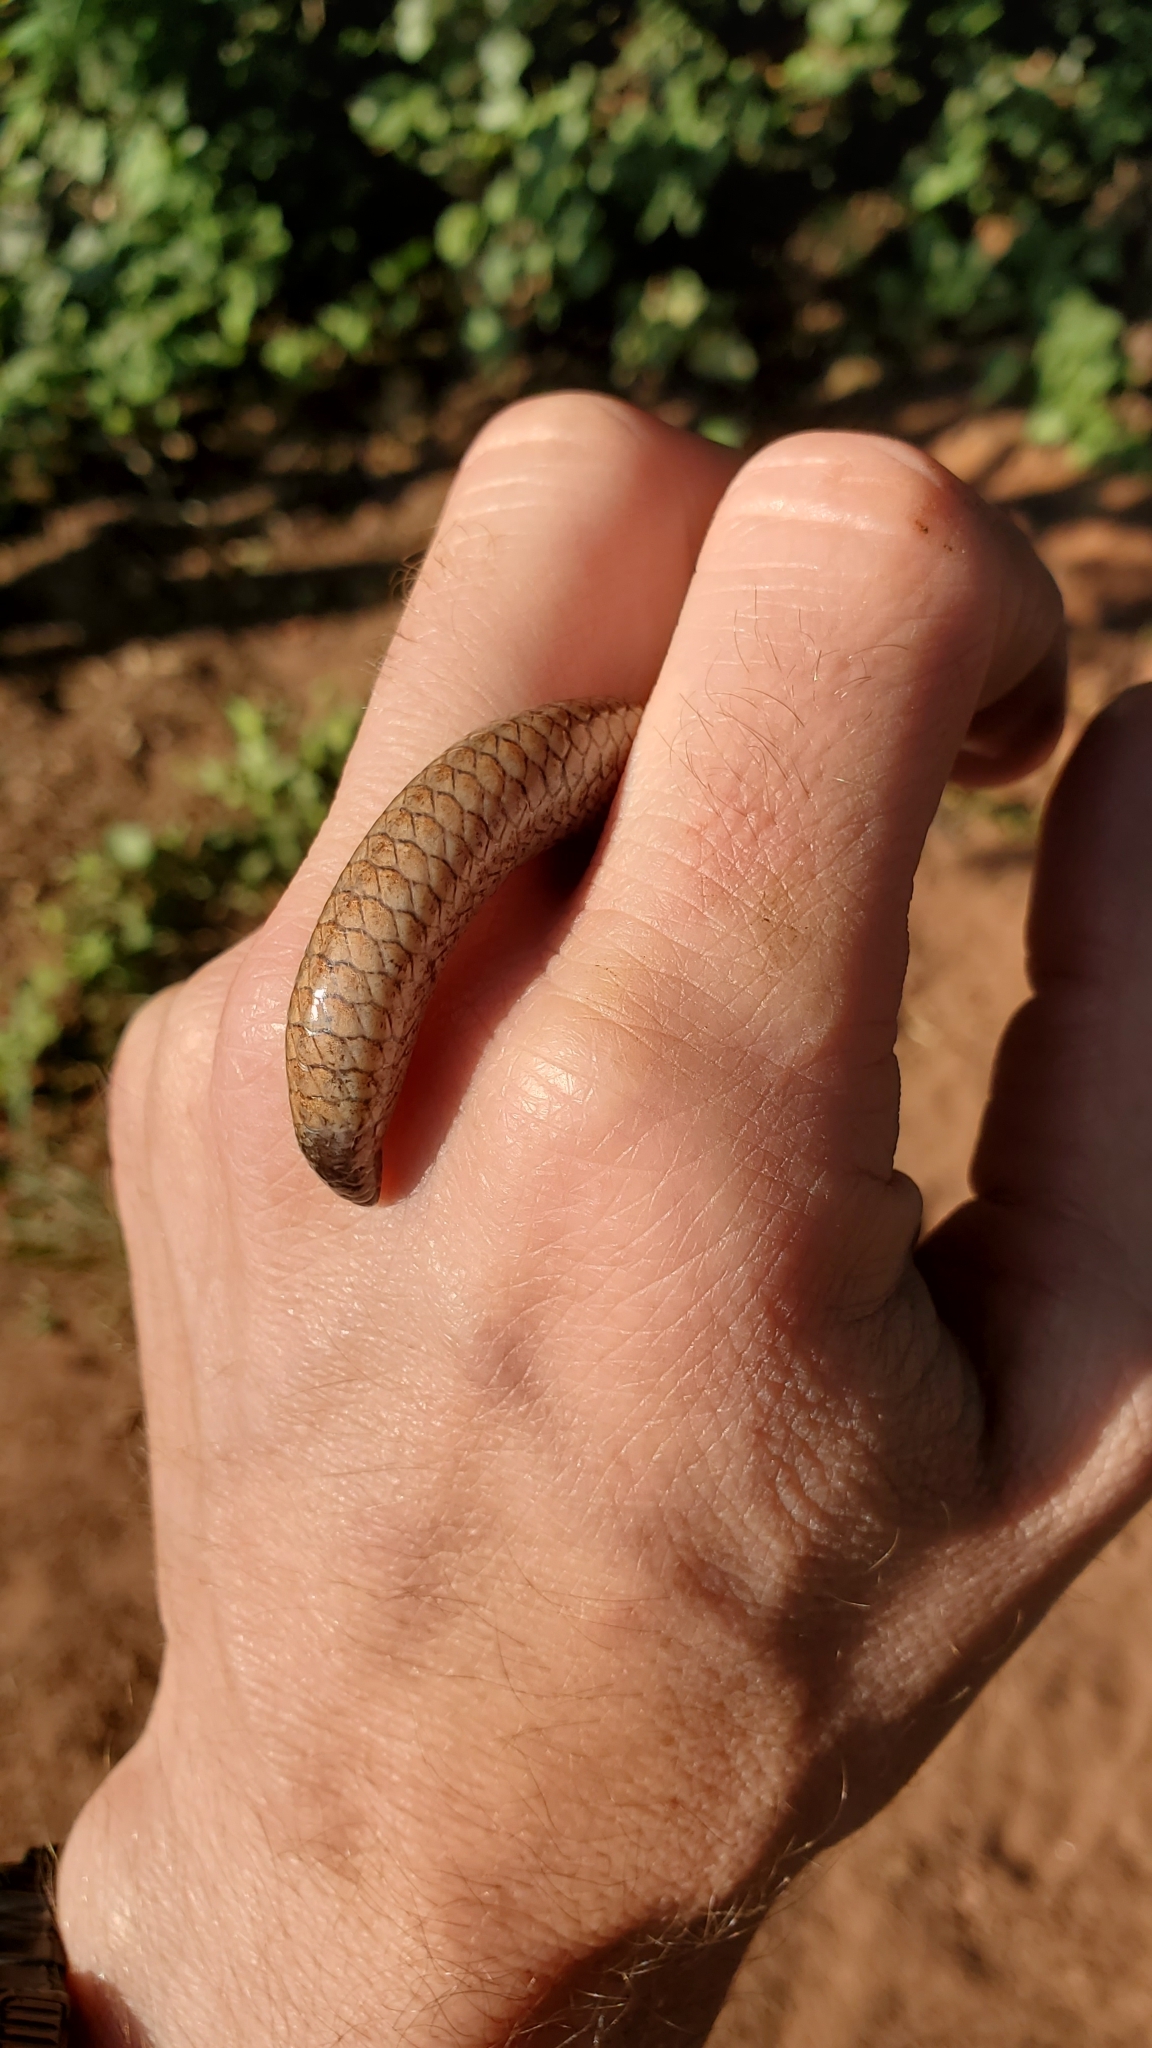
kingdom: Animalia
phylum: Chordata
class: Squamata
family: Anguidae
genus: Anguis
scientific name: Anguis fragilis
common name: Slow worm
